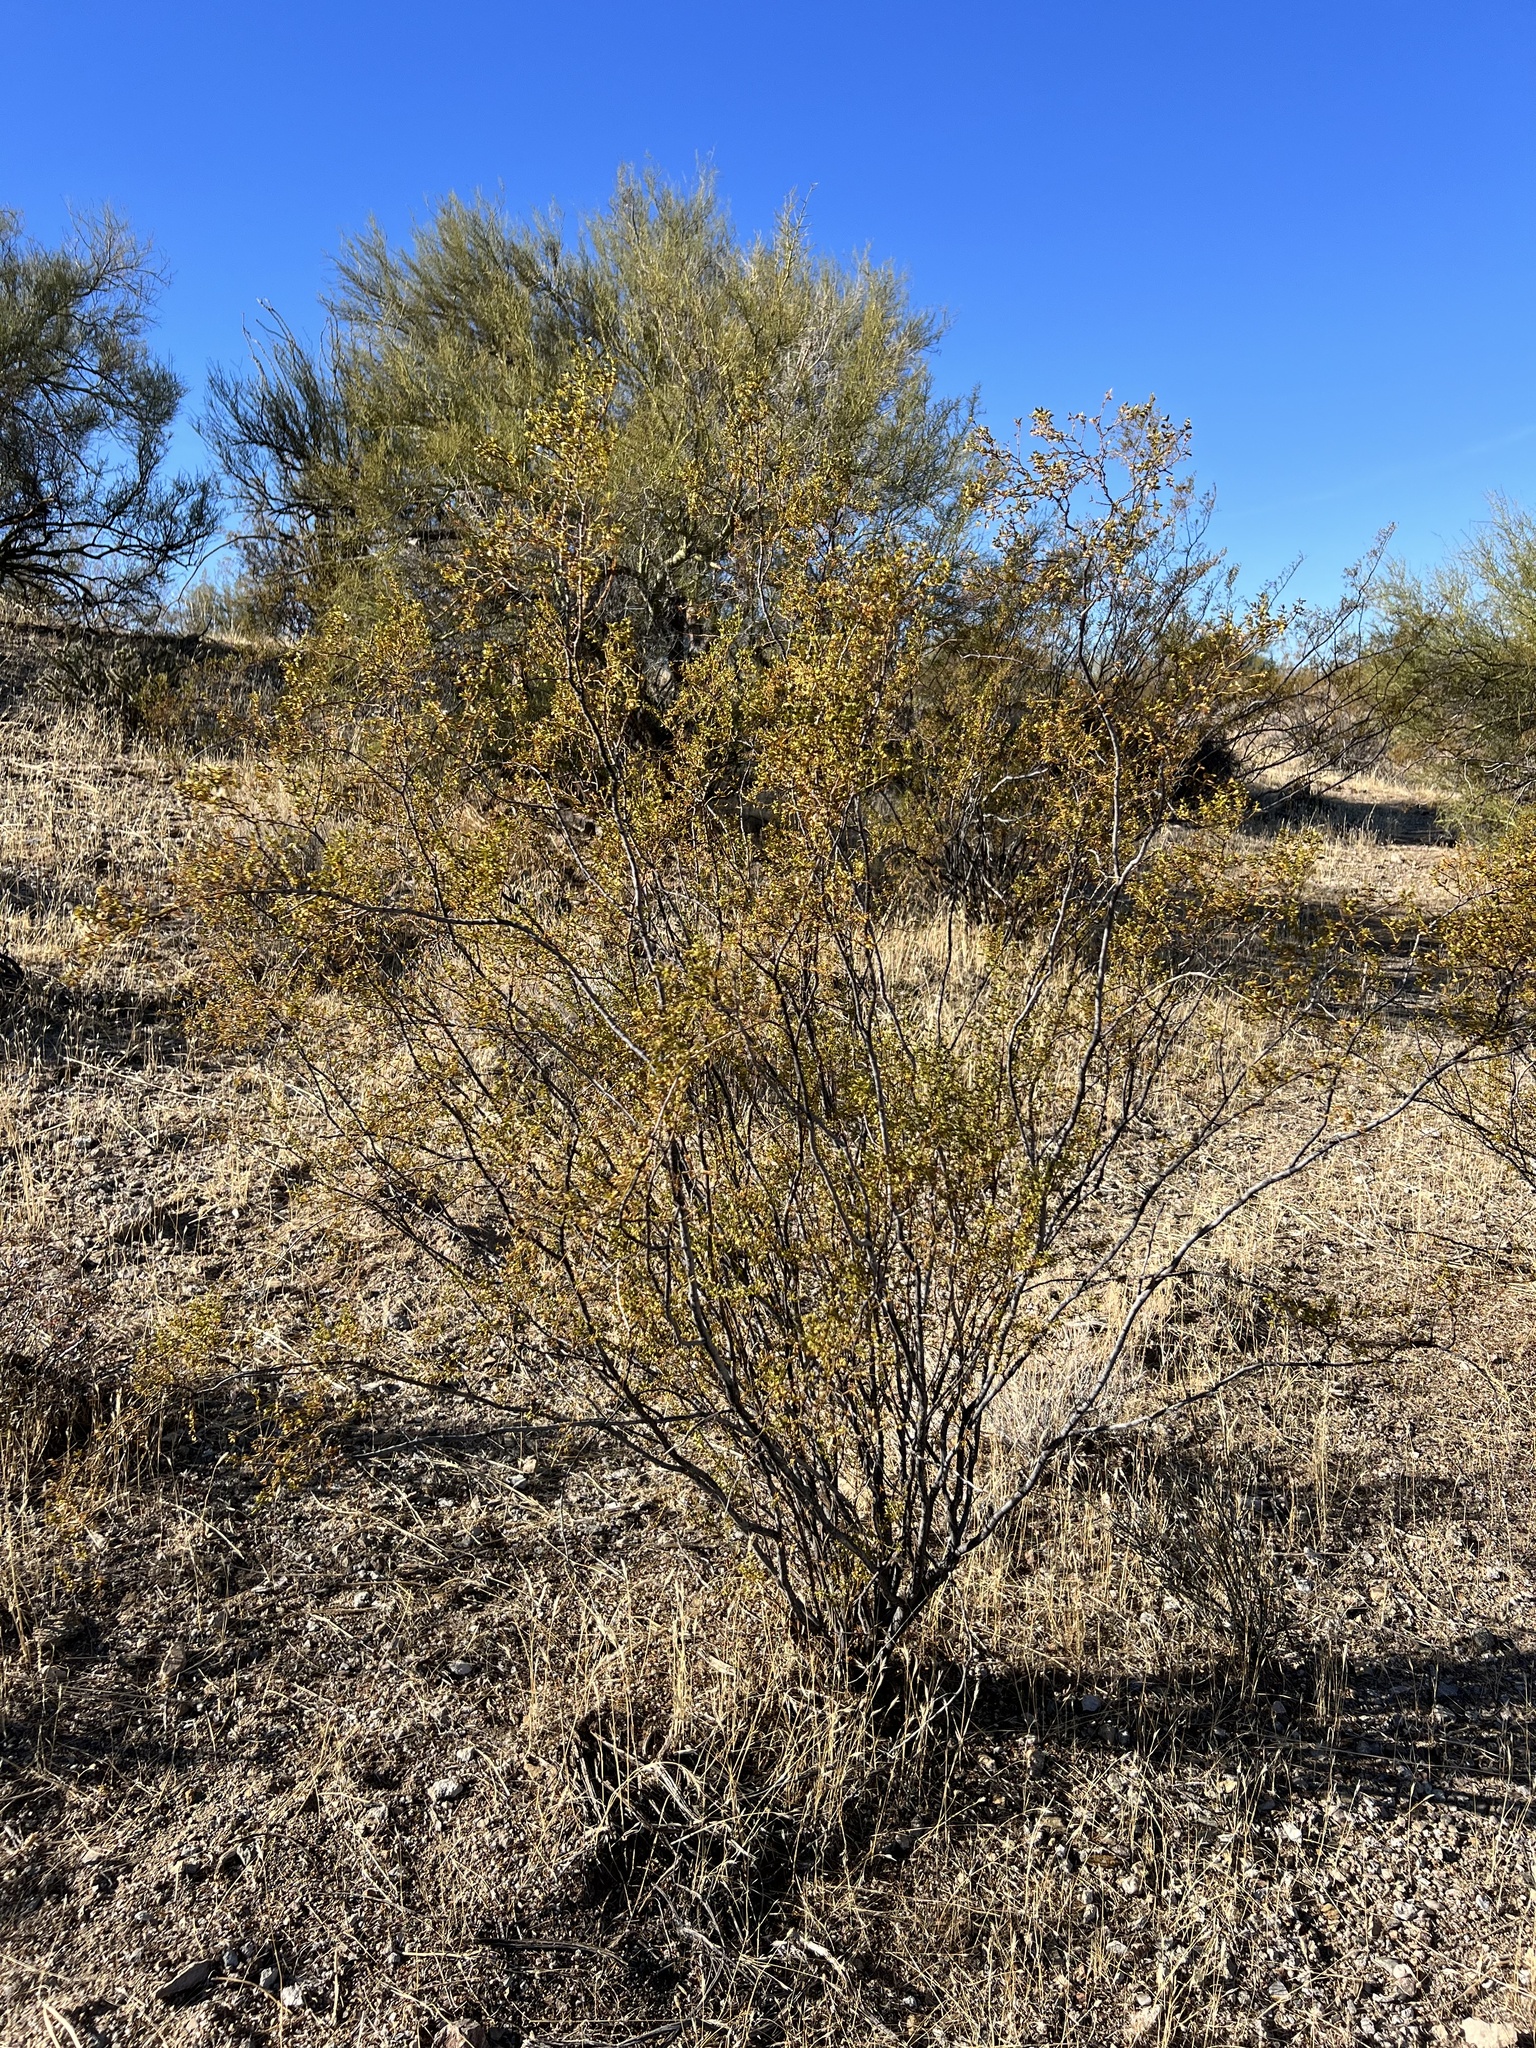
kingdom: Plantae
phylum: Tracheophyta
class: Magnoliopsida
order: Zygophyllales
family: Zygophyllaceae
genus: Larrea
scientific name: Larrea tridentata
